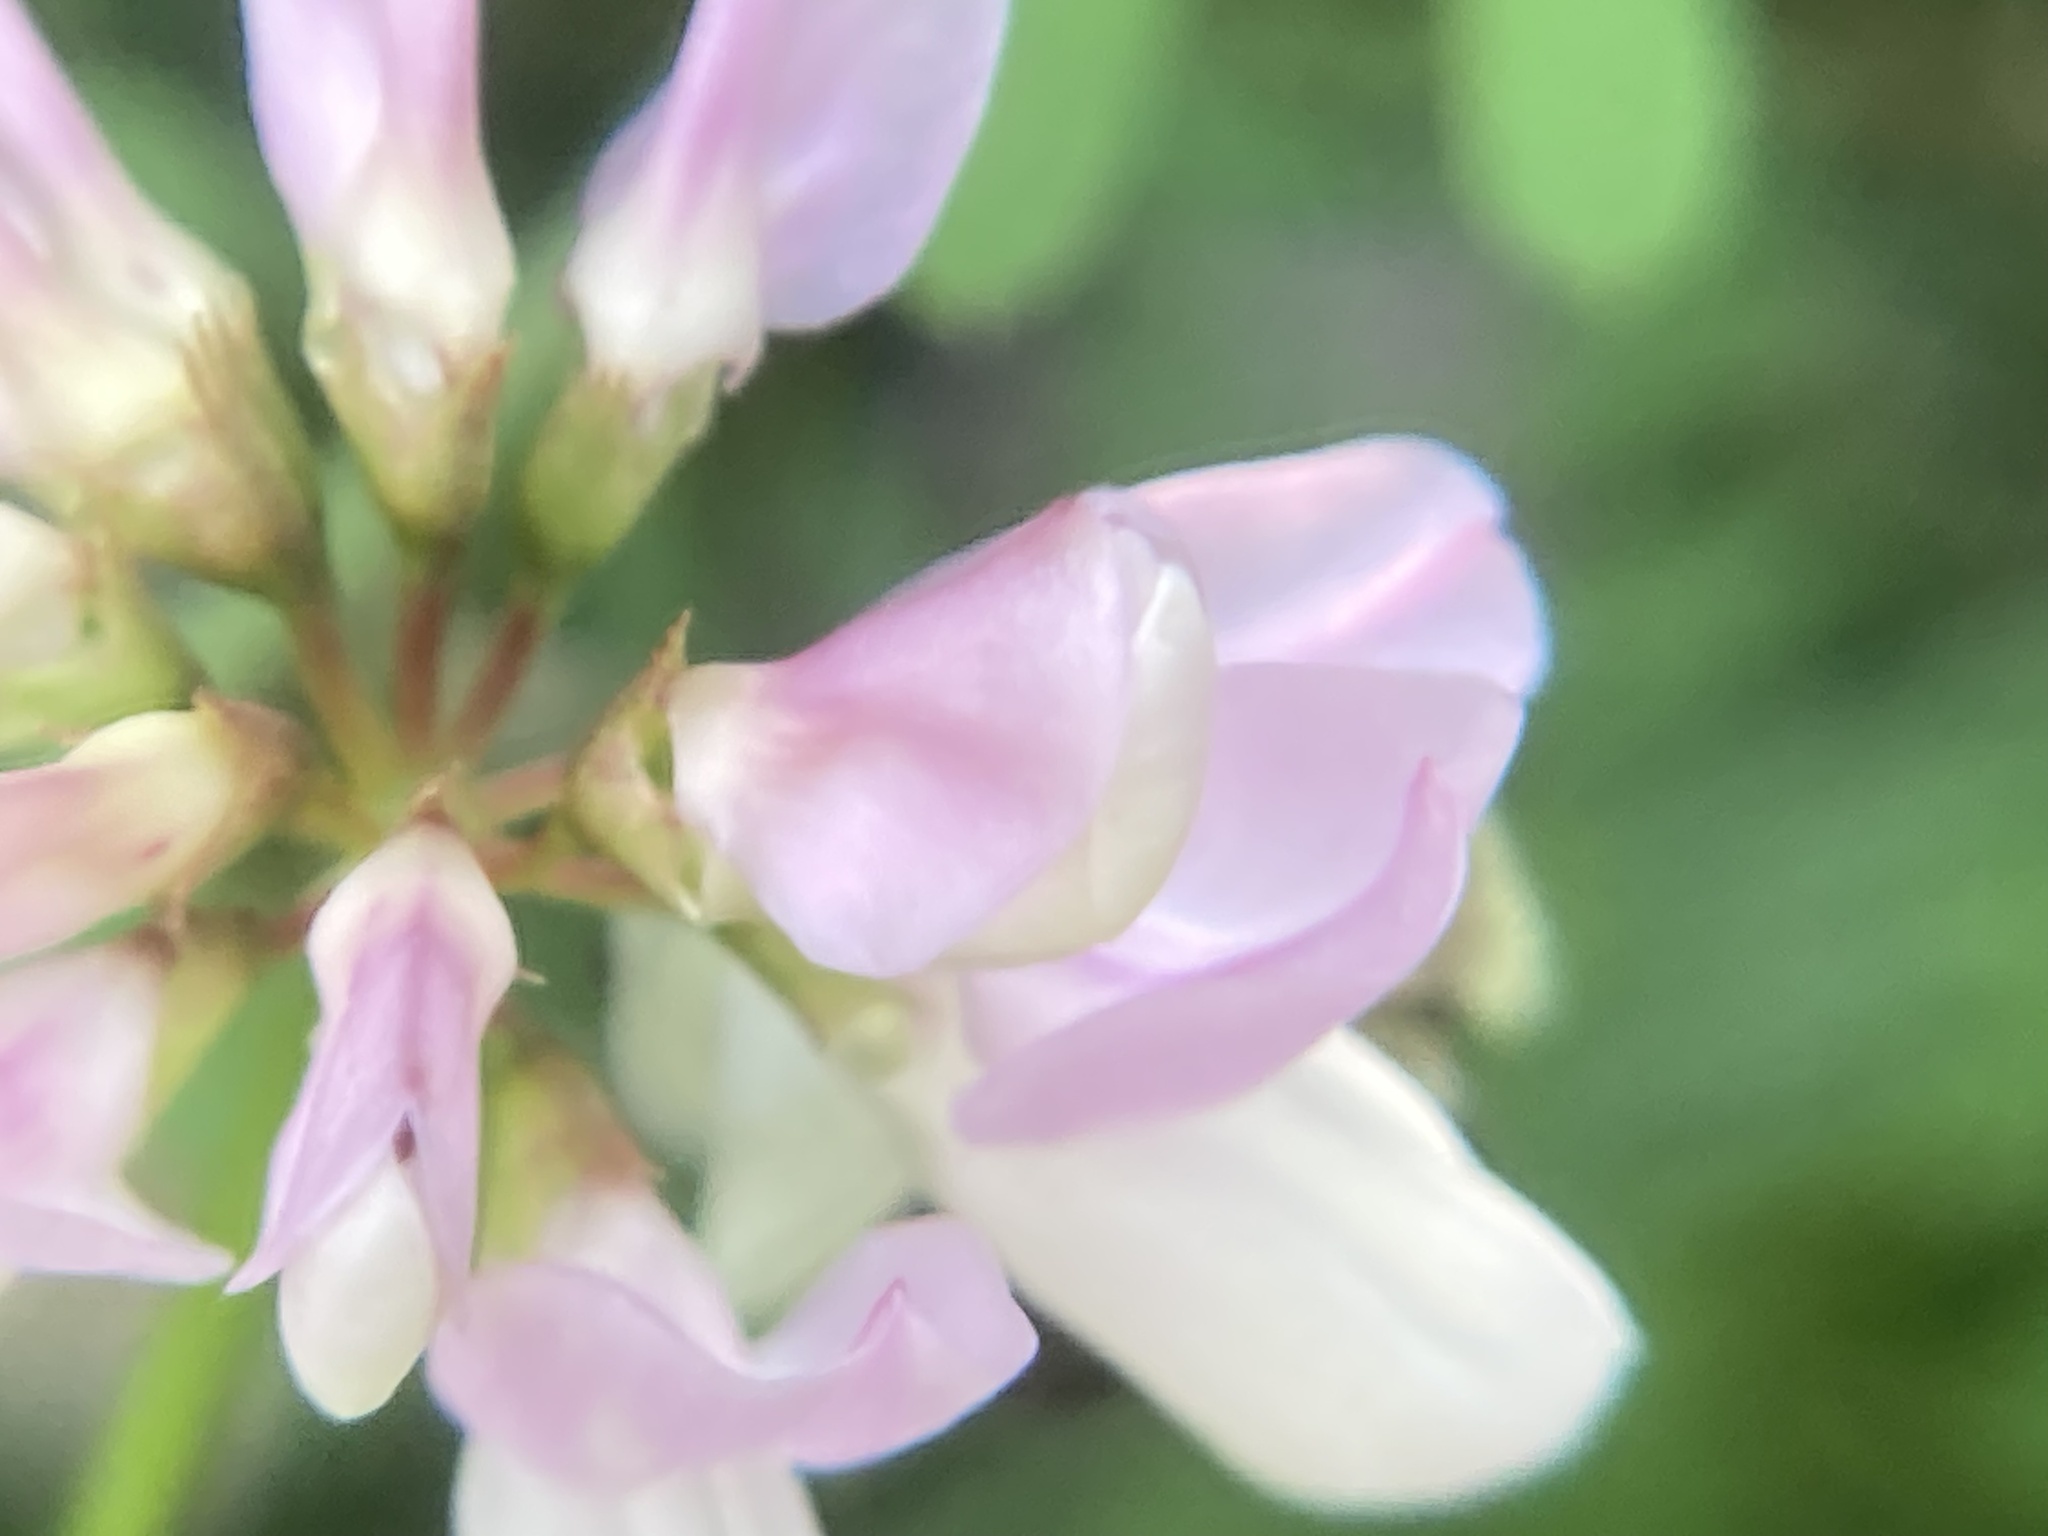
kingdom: Plantae
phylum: Tracheophyta
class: Magnoliopsida
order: Fabales
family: Fabaceae
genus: Coronilla
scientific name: Coronilla varia
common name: Crownvetch
